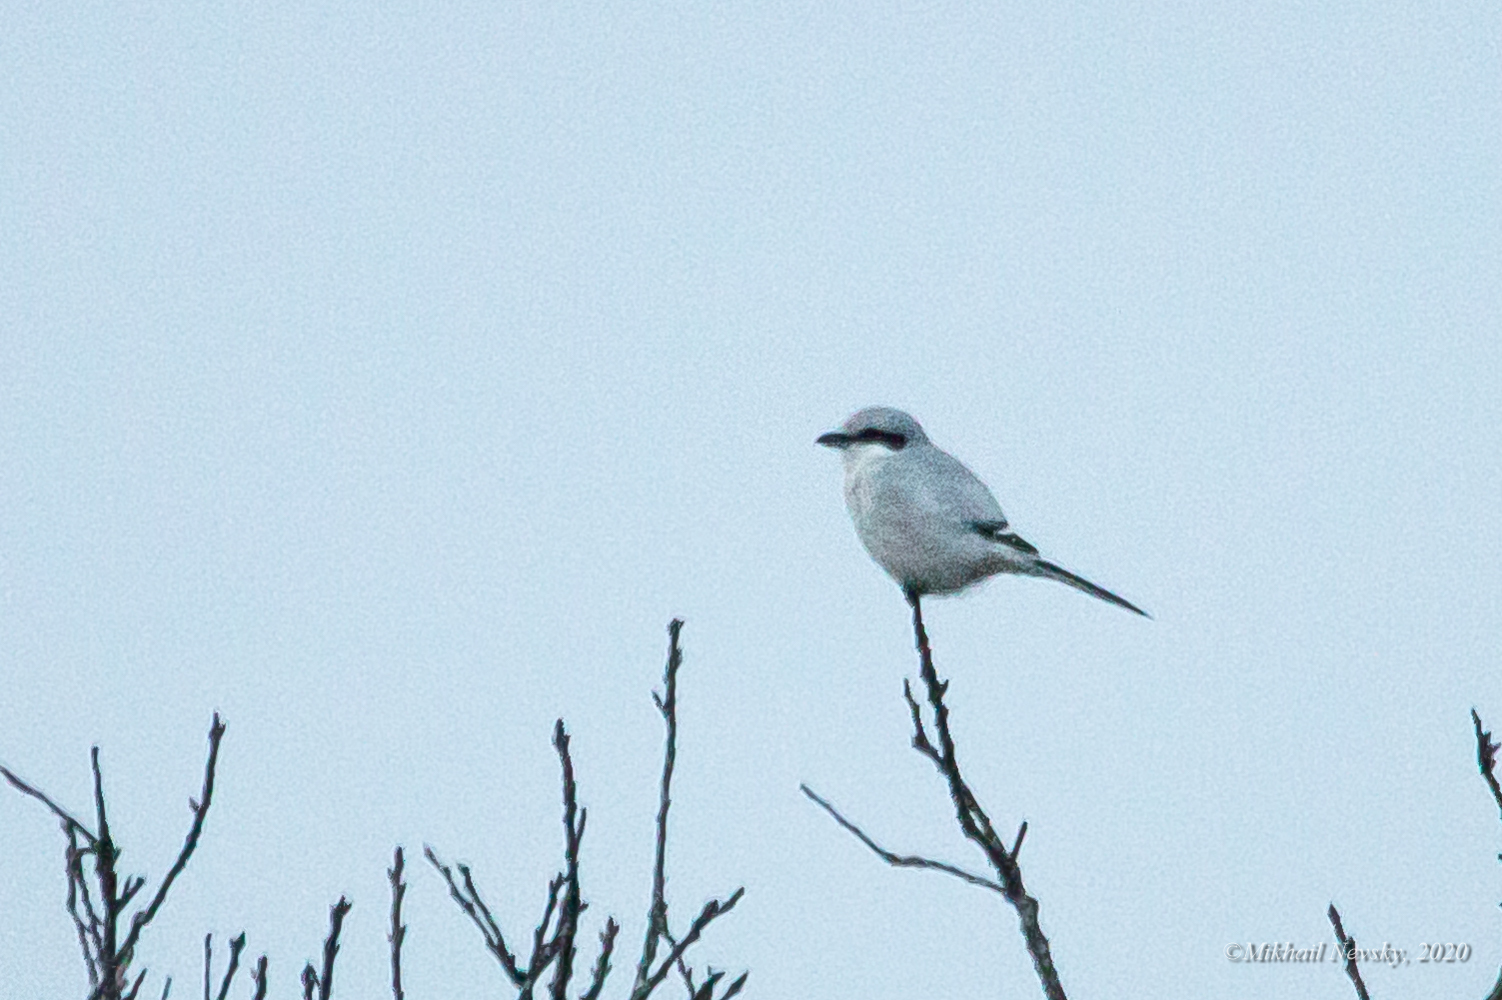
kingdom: Animalia
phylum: Chordata
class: Aves
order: Passeriformes
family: Laniidae
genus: Lanius
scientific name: Lanius excubitor
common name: Great grey shrike
